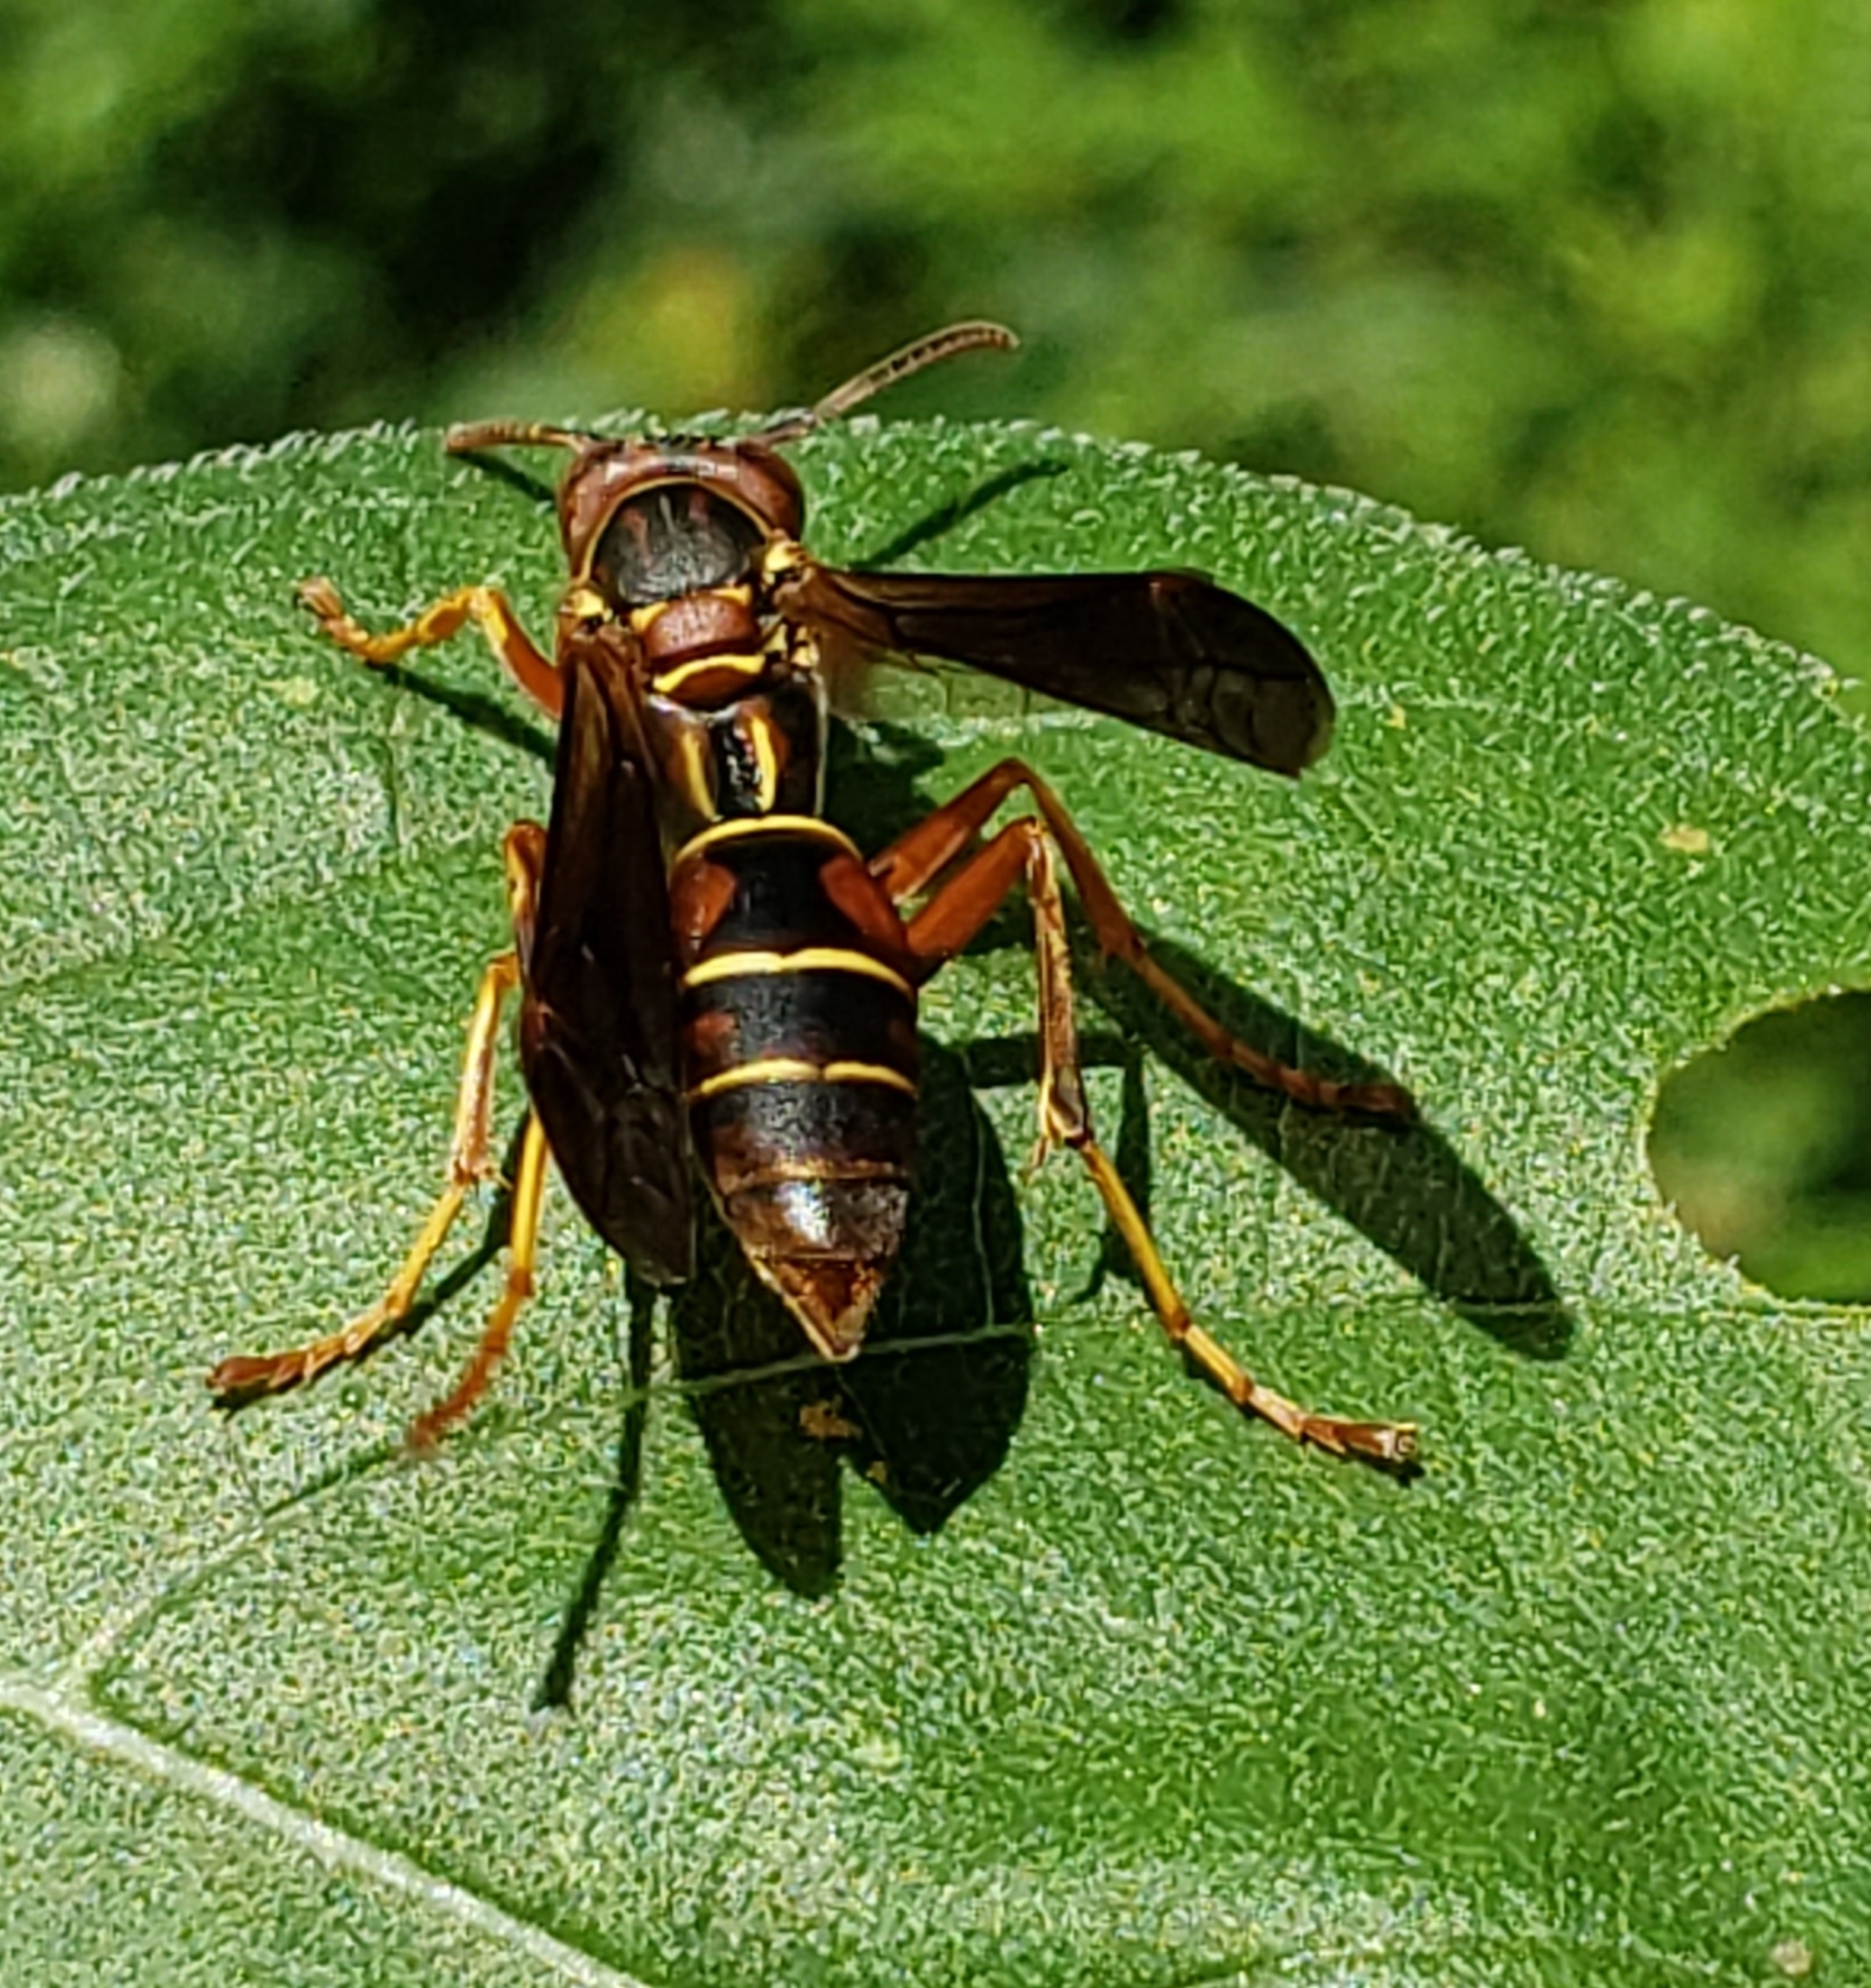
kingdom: Animalia
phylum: Arthropoda
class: Insecta
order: Hymenoptera
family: Eumenidae
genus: Polistes
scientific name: Polistes fuscatus
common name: Dark paper wasp
